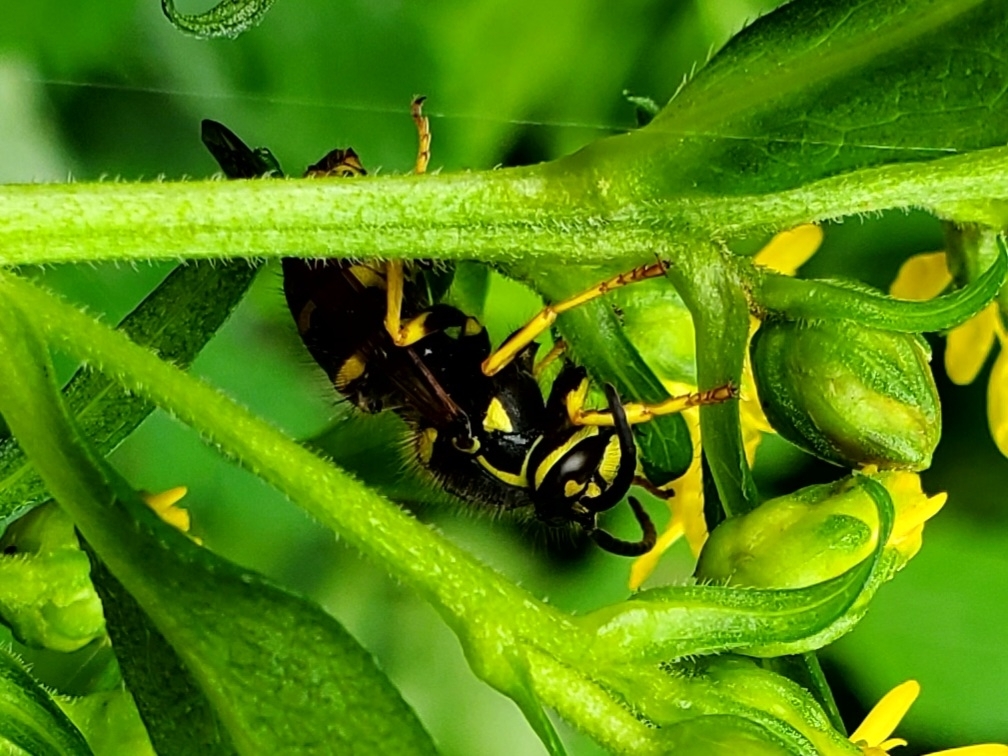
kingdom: Animalia
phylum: Arthropoda
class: Insecta
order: Hymenoptera
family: Vespidae
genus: Dolichovespula
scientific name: Dolichovespula arenaria
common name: Aerial yellowjacket
